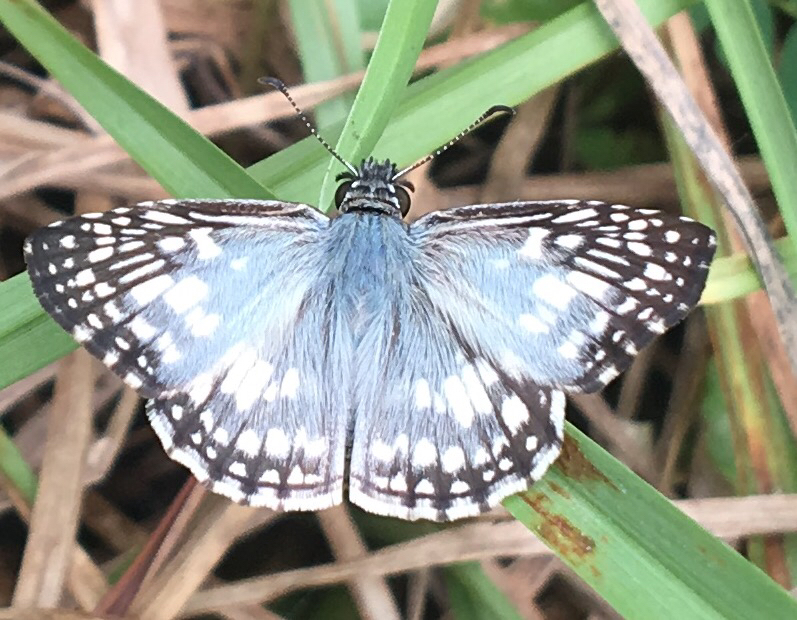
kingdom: Animalia
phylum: Arthropoda
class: Insecta
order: Lepidoptera
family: Hesperiidae
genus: Pyrgus
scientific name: Pyrgus oileus
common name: Tropical checkered-skipper
